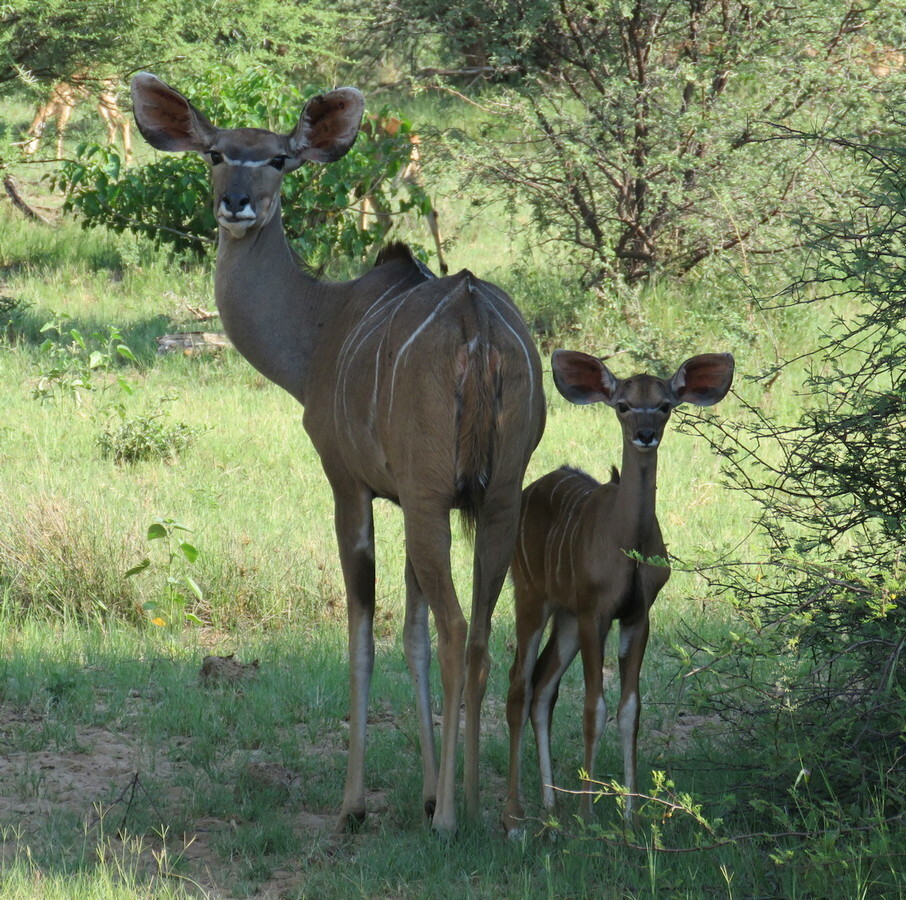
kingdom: Animalia
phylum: Chordata
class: Mammalia
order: Artiodactyla
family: Bovidae
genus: Tragelaphus
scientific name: Tragelaphus strepsiceros
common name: Greater kudu
